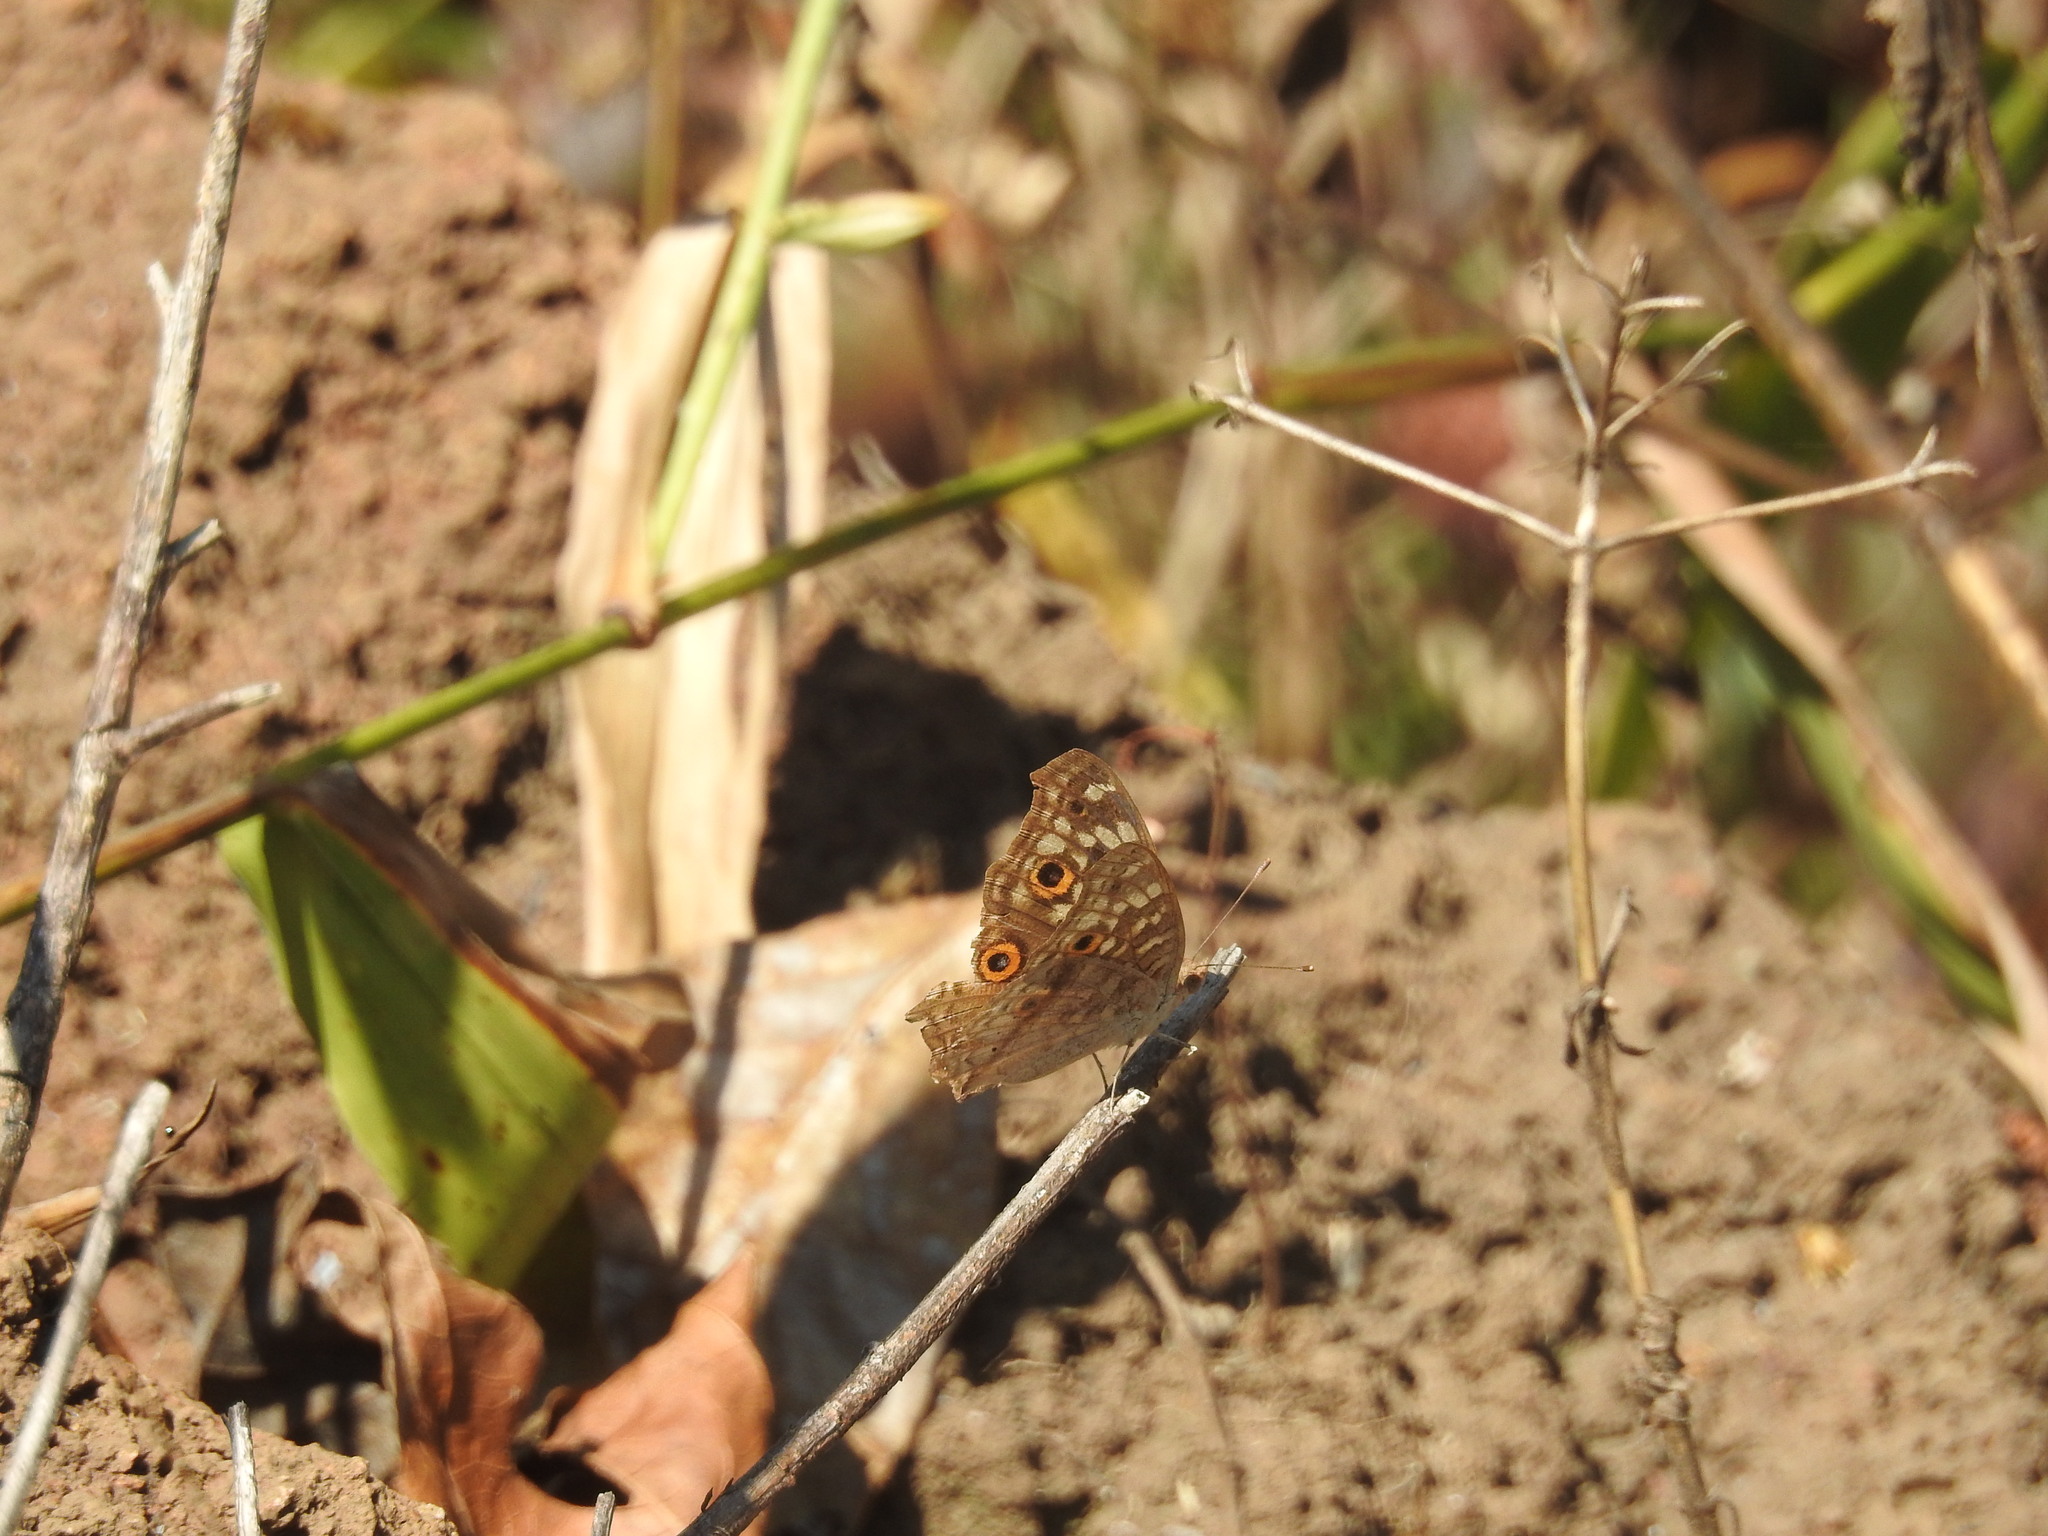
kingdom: Animalia
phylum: Arthropoda
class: Insecta
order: Lepidoptera
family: Nymphalidae
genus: Junonia
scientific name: Junonia lemonias
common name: Lemon pansy
